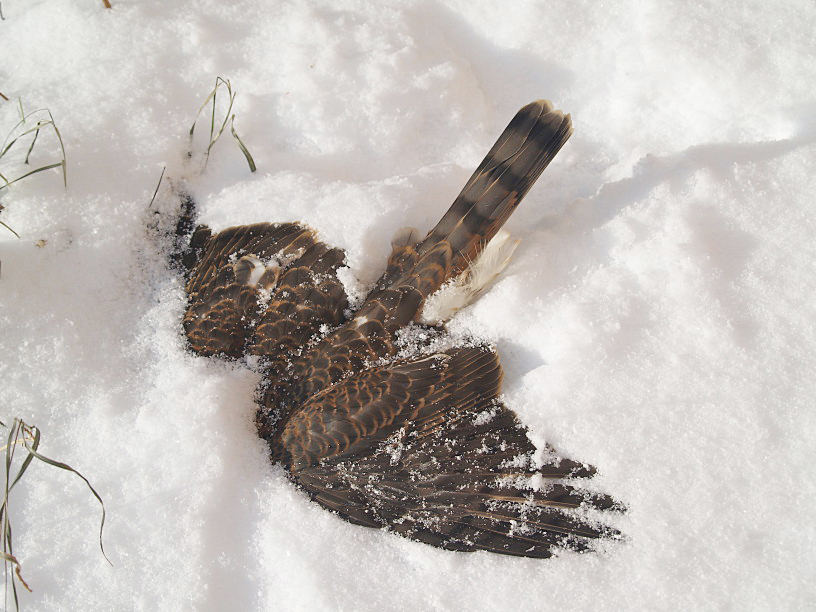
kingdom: Animalia
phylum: Chordata
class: Aves
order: Accipitriformes
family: Accipitridae
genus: Accipiter
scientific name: Accipiter nisus
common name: Eurasian sparrowhawk
